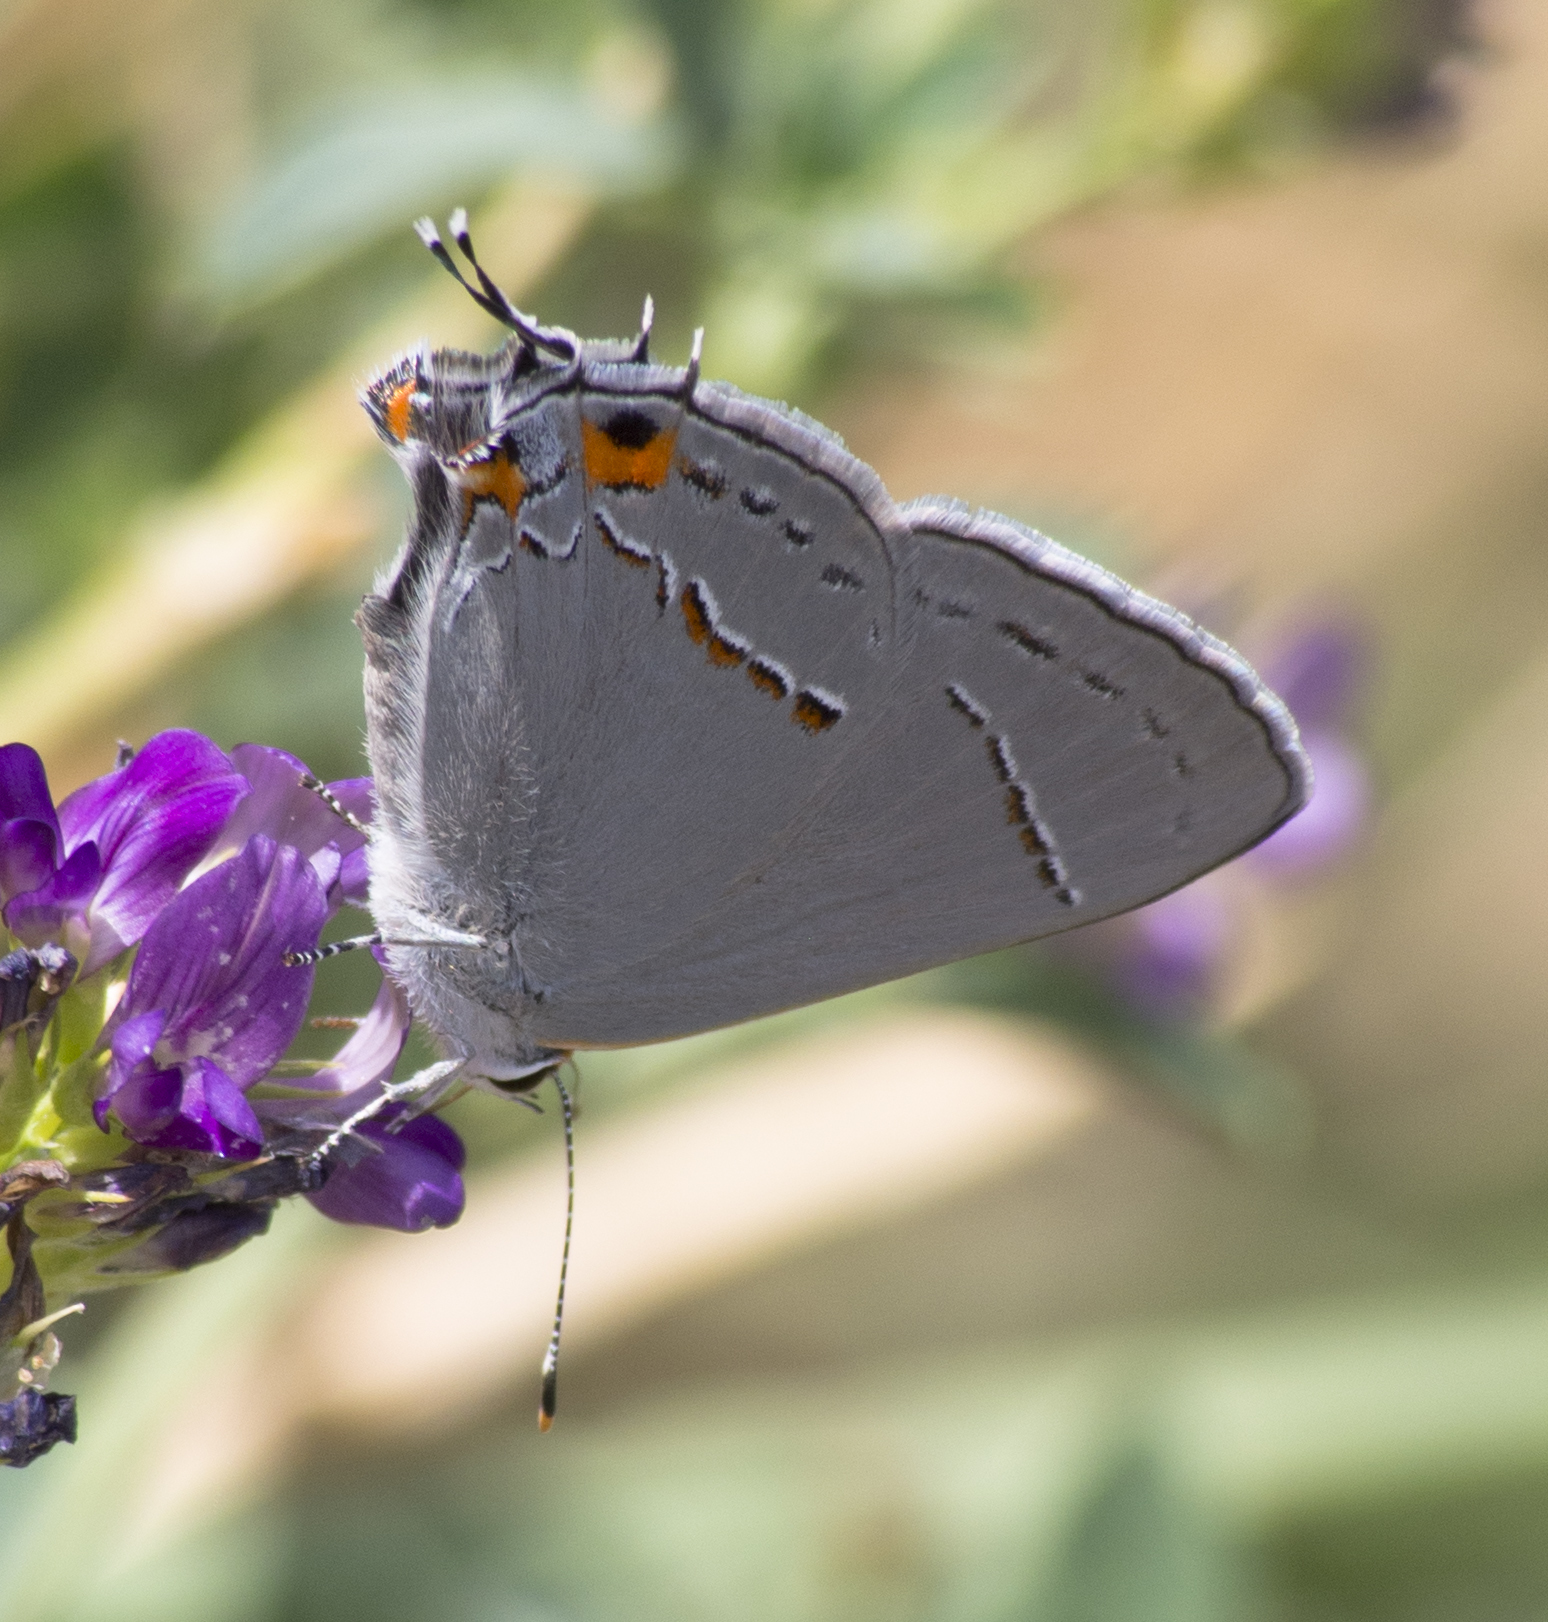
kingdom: Animalia
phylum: Arthropoda
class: Insecta
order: Lepidoptera
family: Lycaenidae
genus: Strymon
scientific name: Strymon melinus
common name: Gray hairstreak
